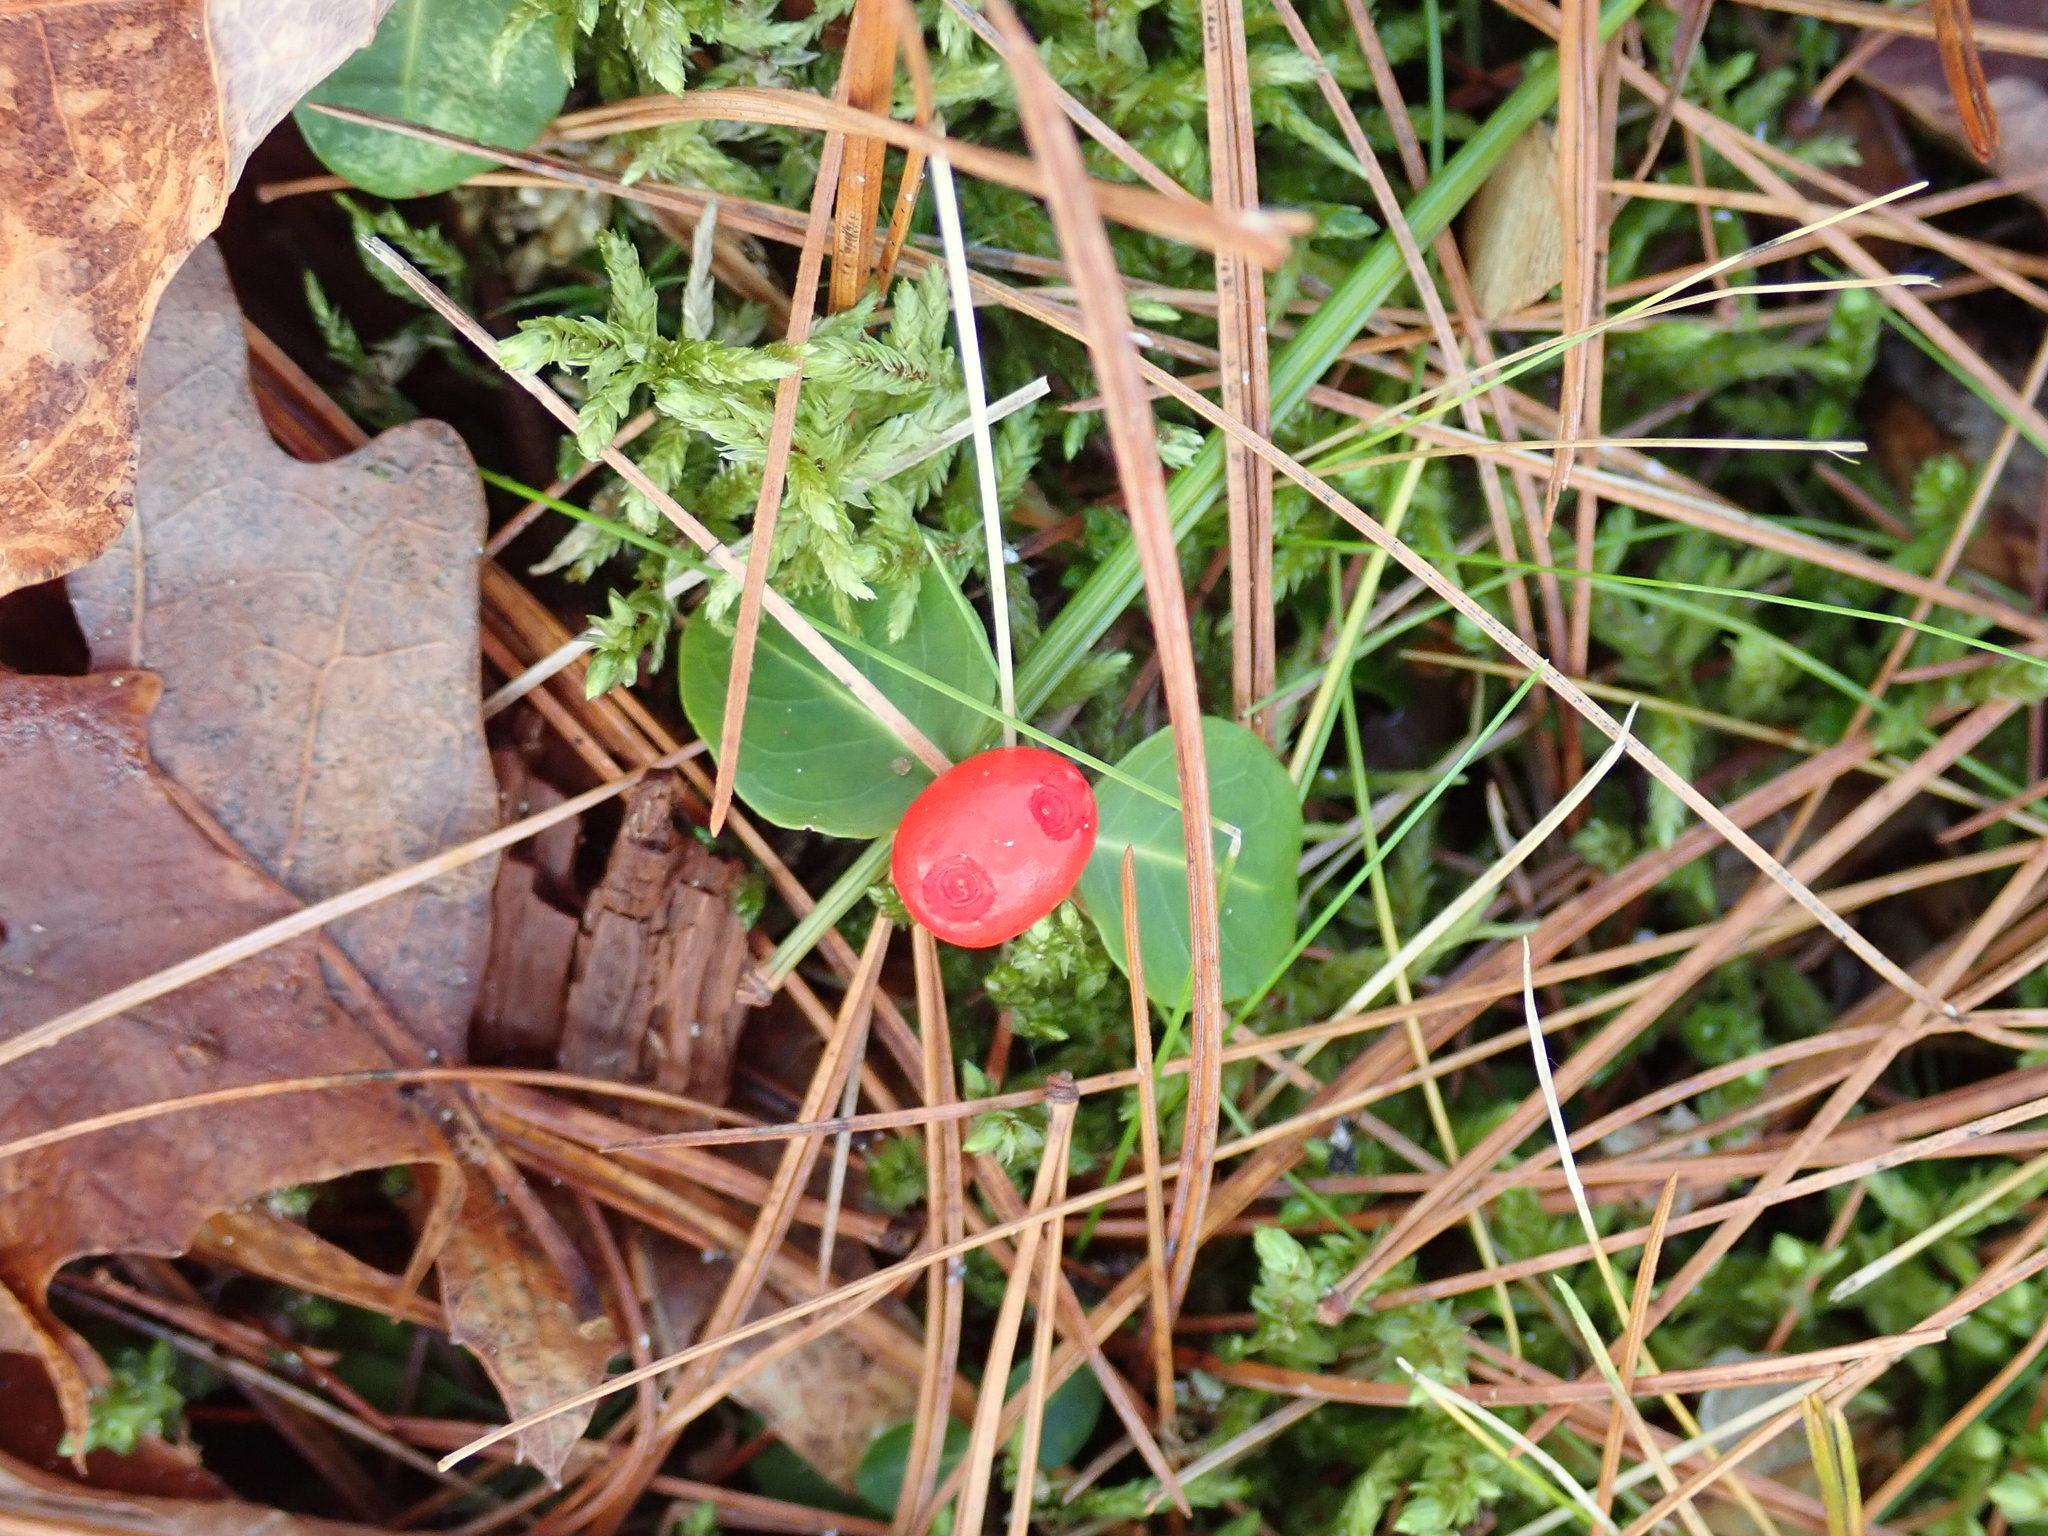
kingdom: Plantae
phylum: Tracheophyta
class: Magnoliopsida
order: Gentianales
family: Rubiaceae
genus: Mitchella
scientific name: Mitchella repens
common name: Partridge-berry
